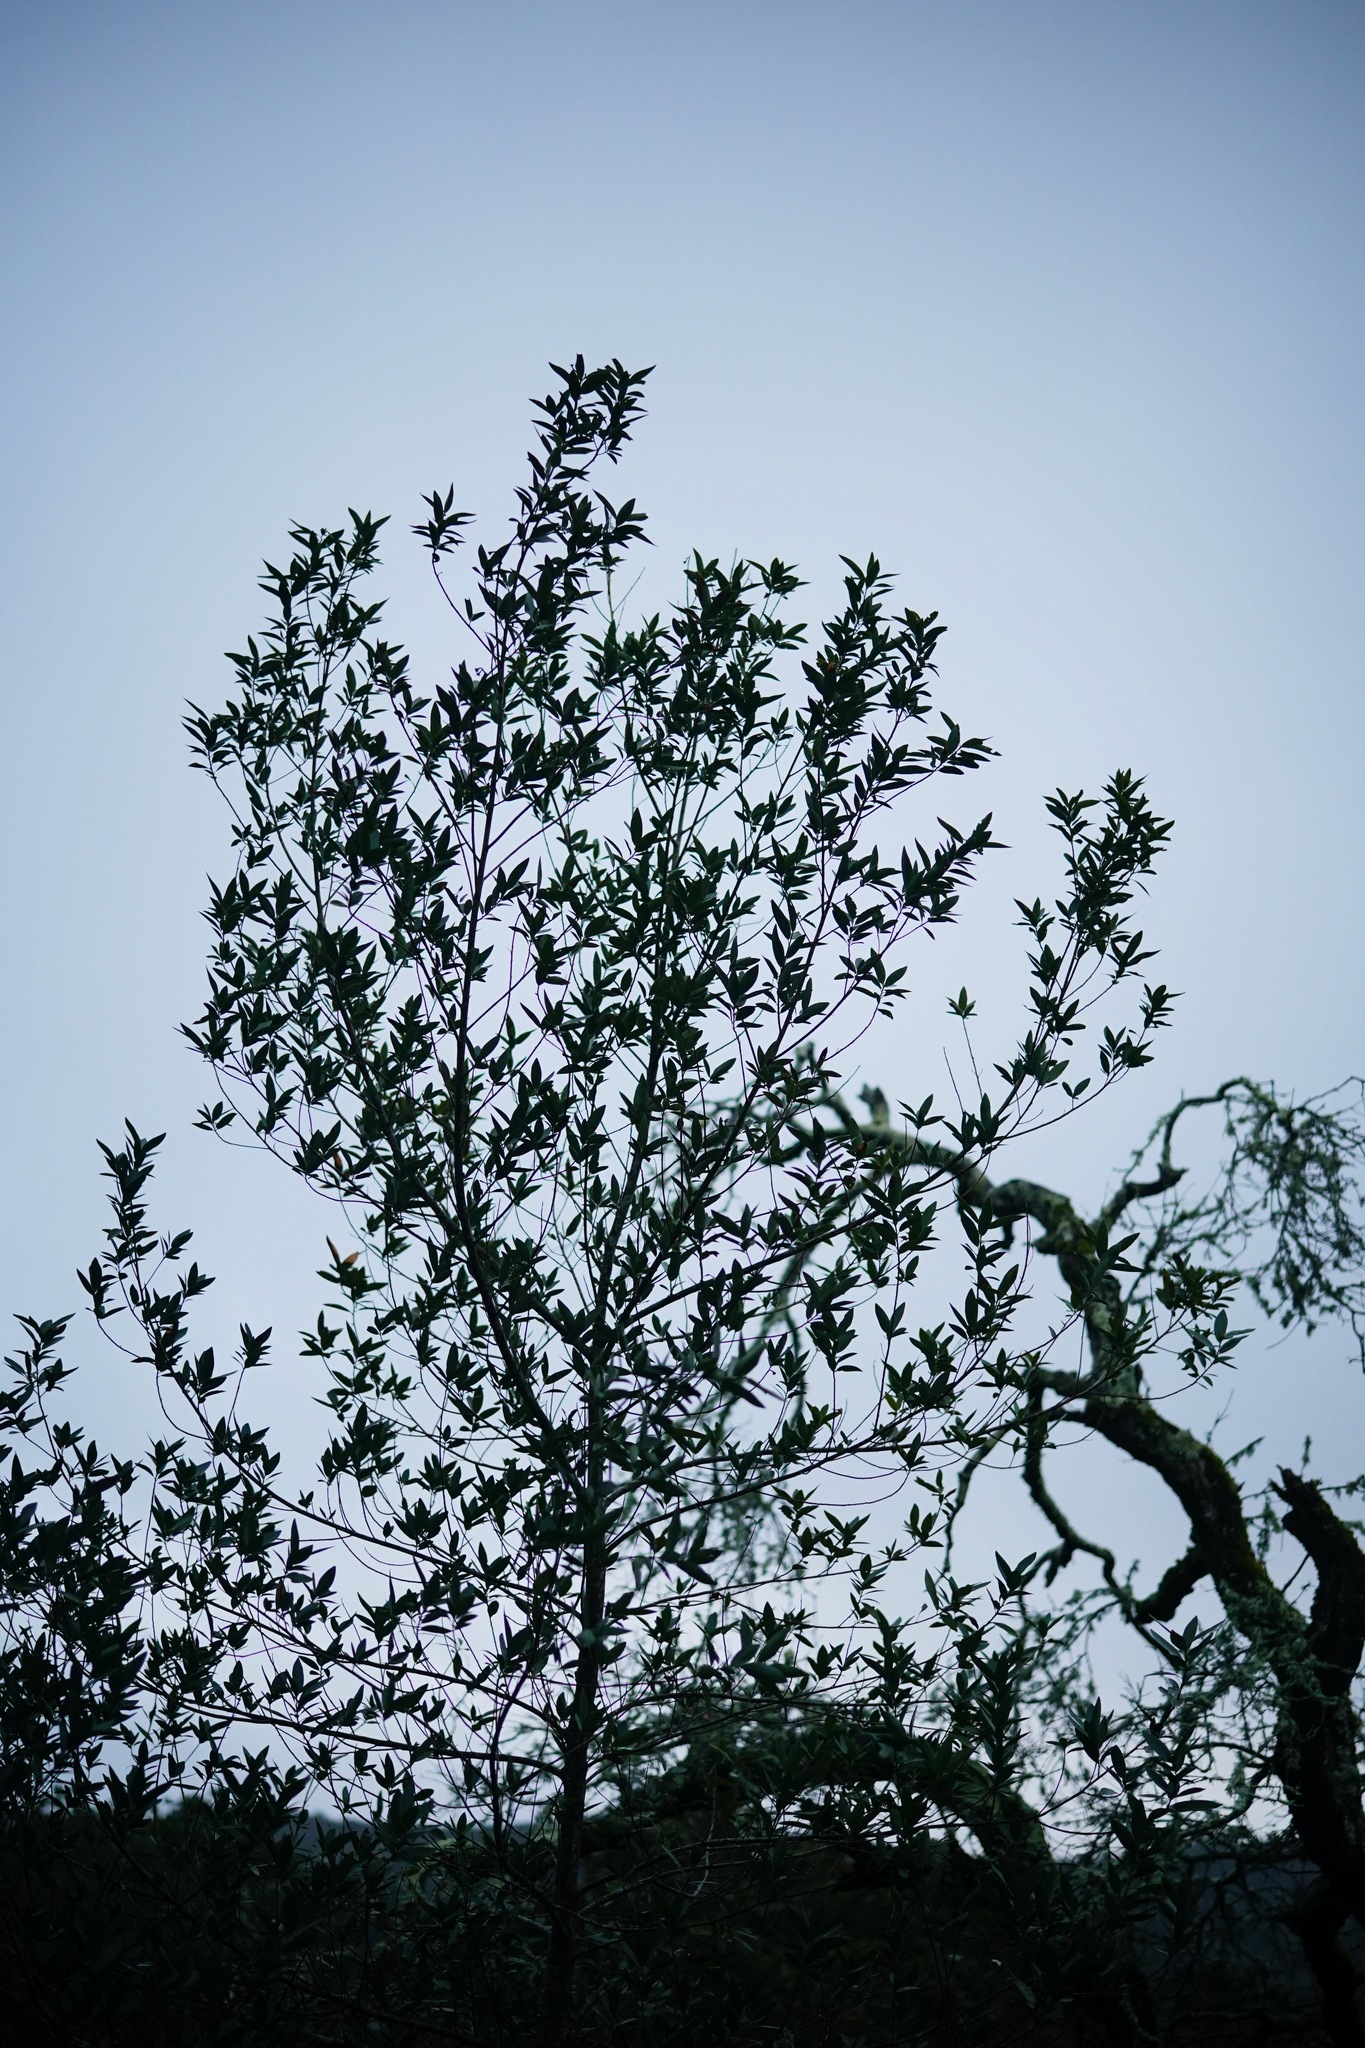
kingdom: Plantae
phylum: Tracheophyta
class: Magnoliopsida
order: Laurales
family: Lauraceae
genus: Umbellularia
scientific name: Umbellularia californica
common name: California bay
